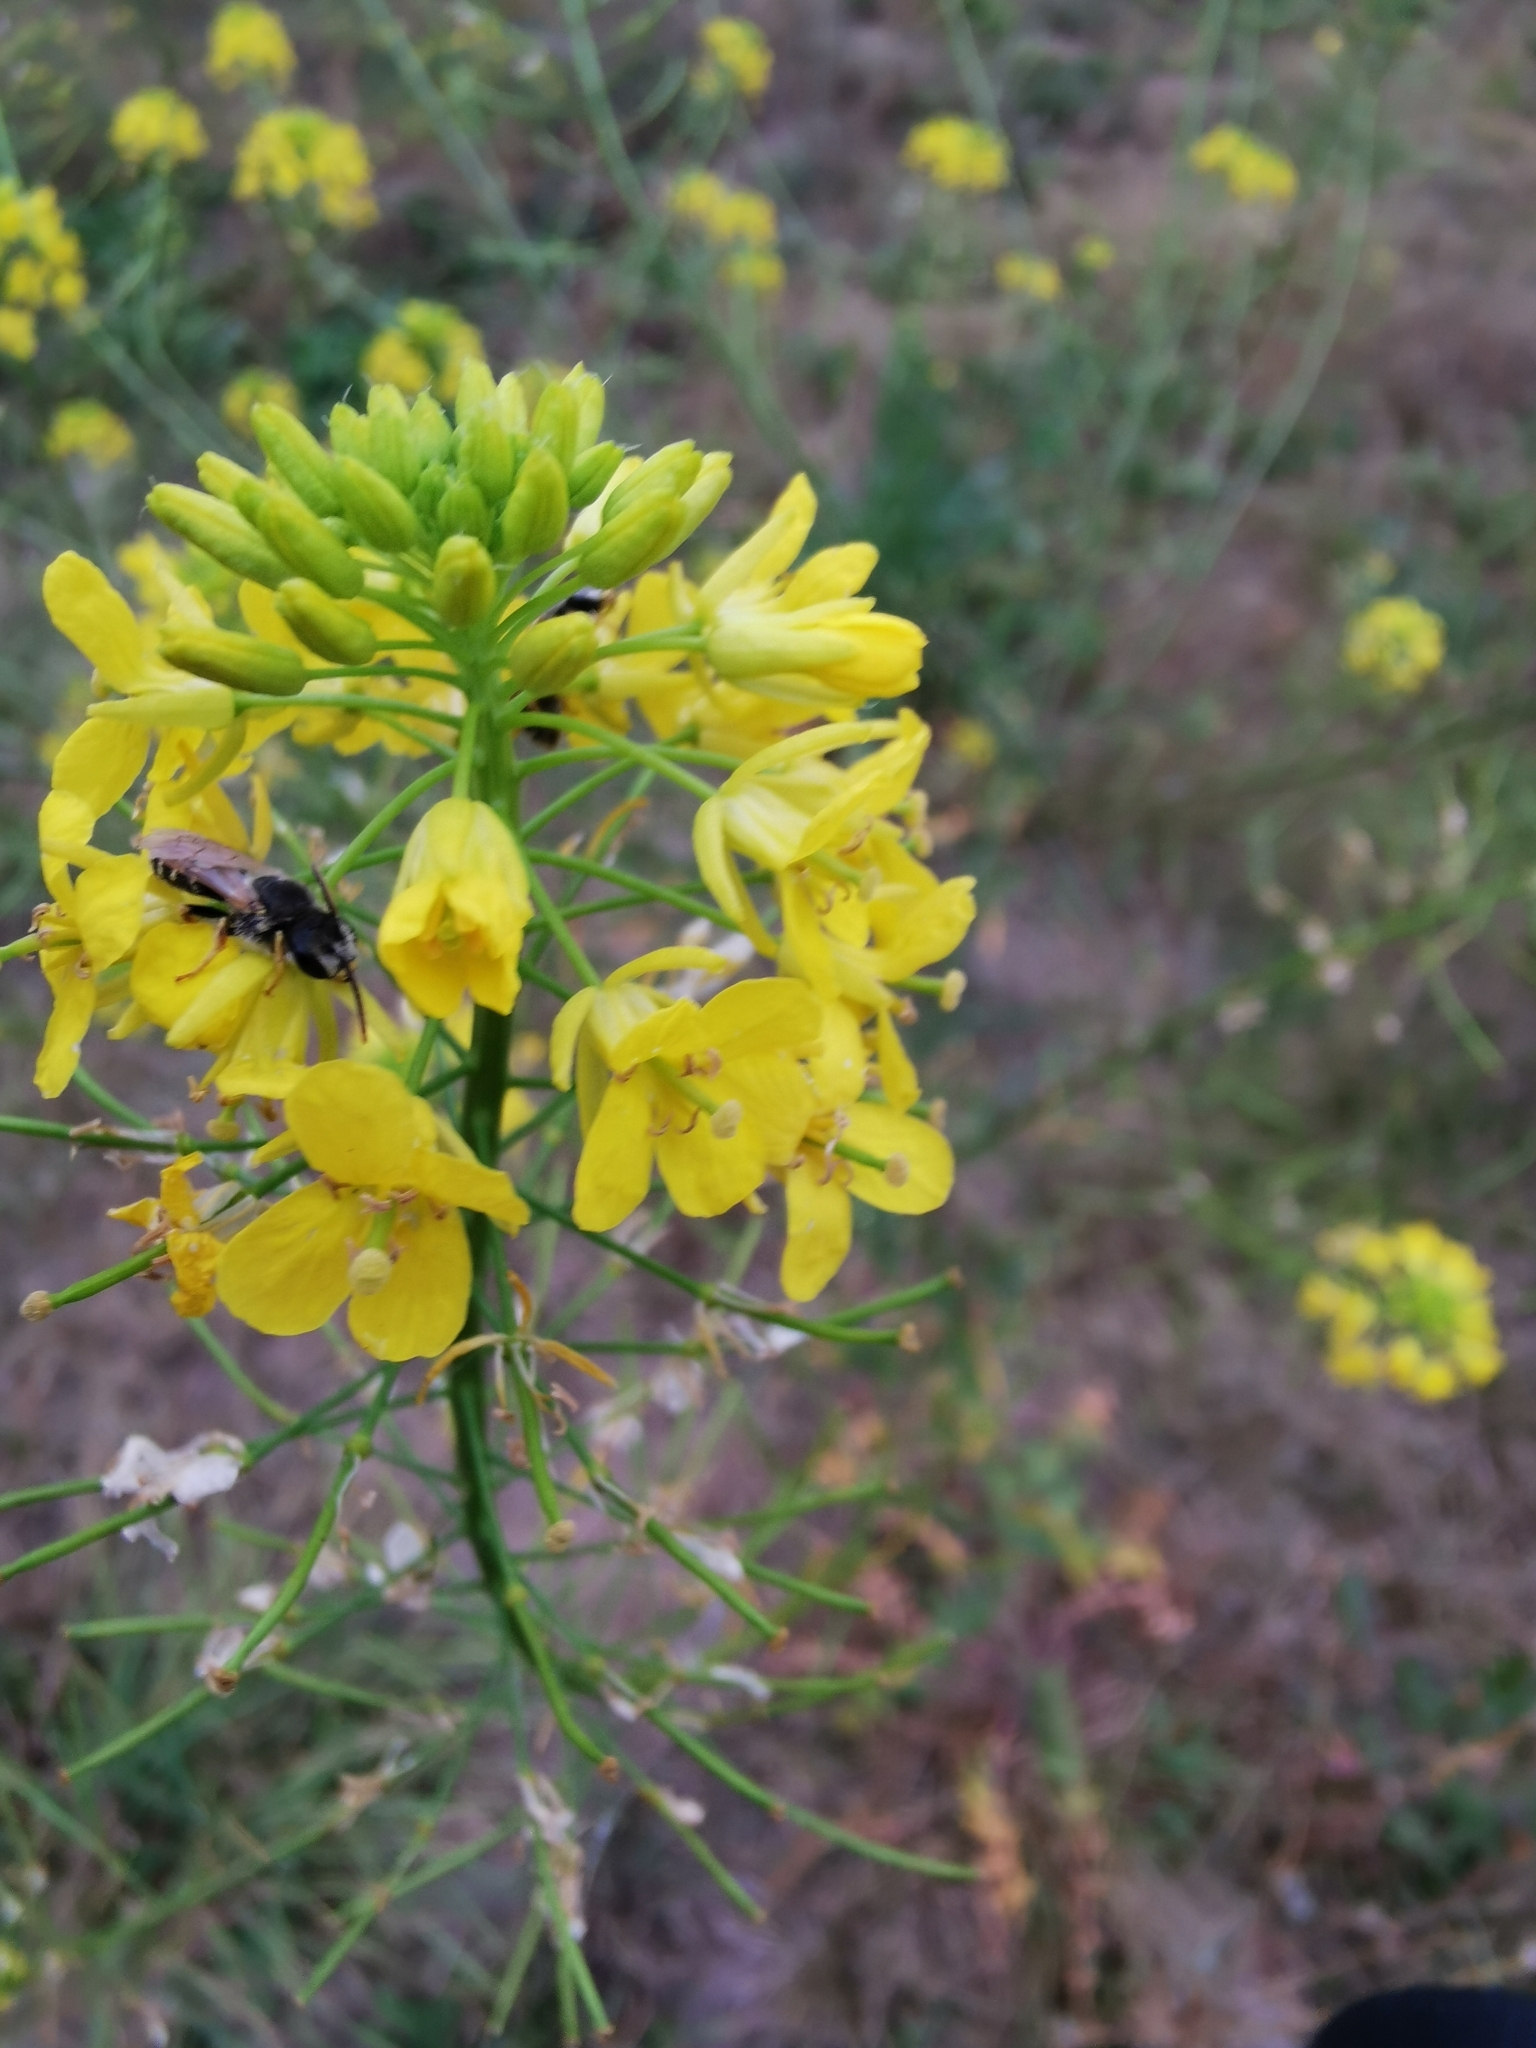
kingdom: Animalia
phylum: Arthropoda
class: Insecta
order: Hymenoptera
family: Halictidae
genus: Halictus
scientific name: Halictus ligatus
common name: Ligated furrow bee
